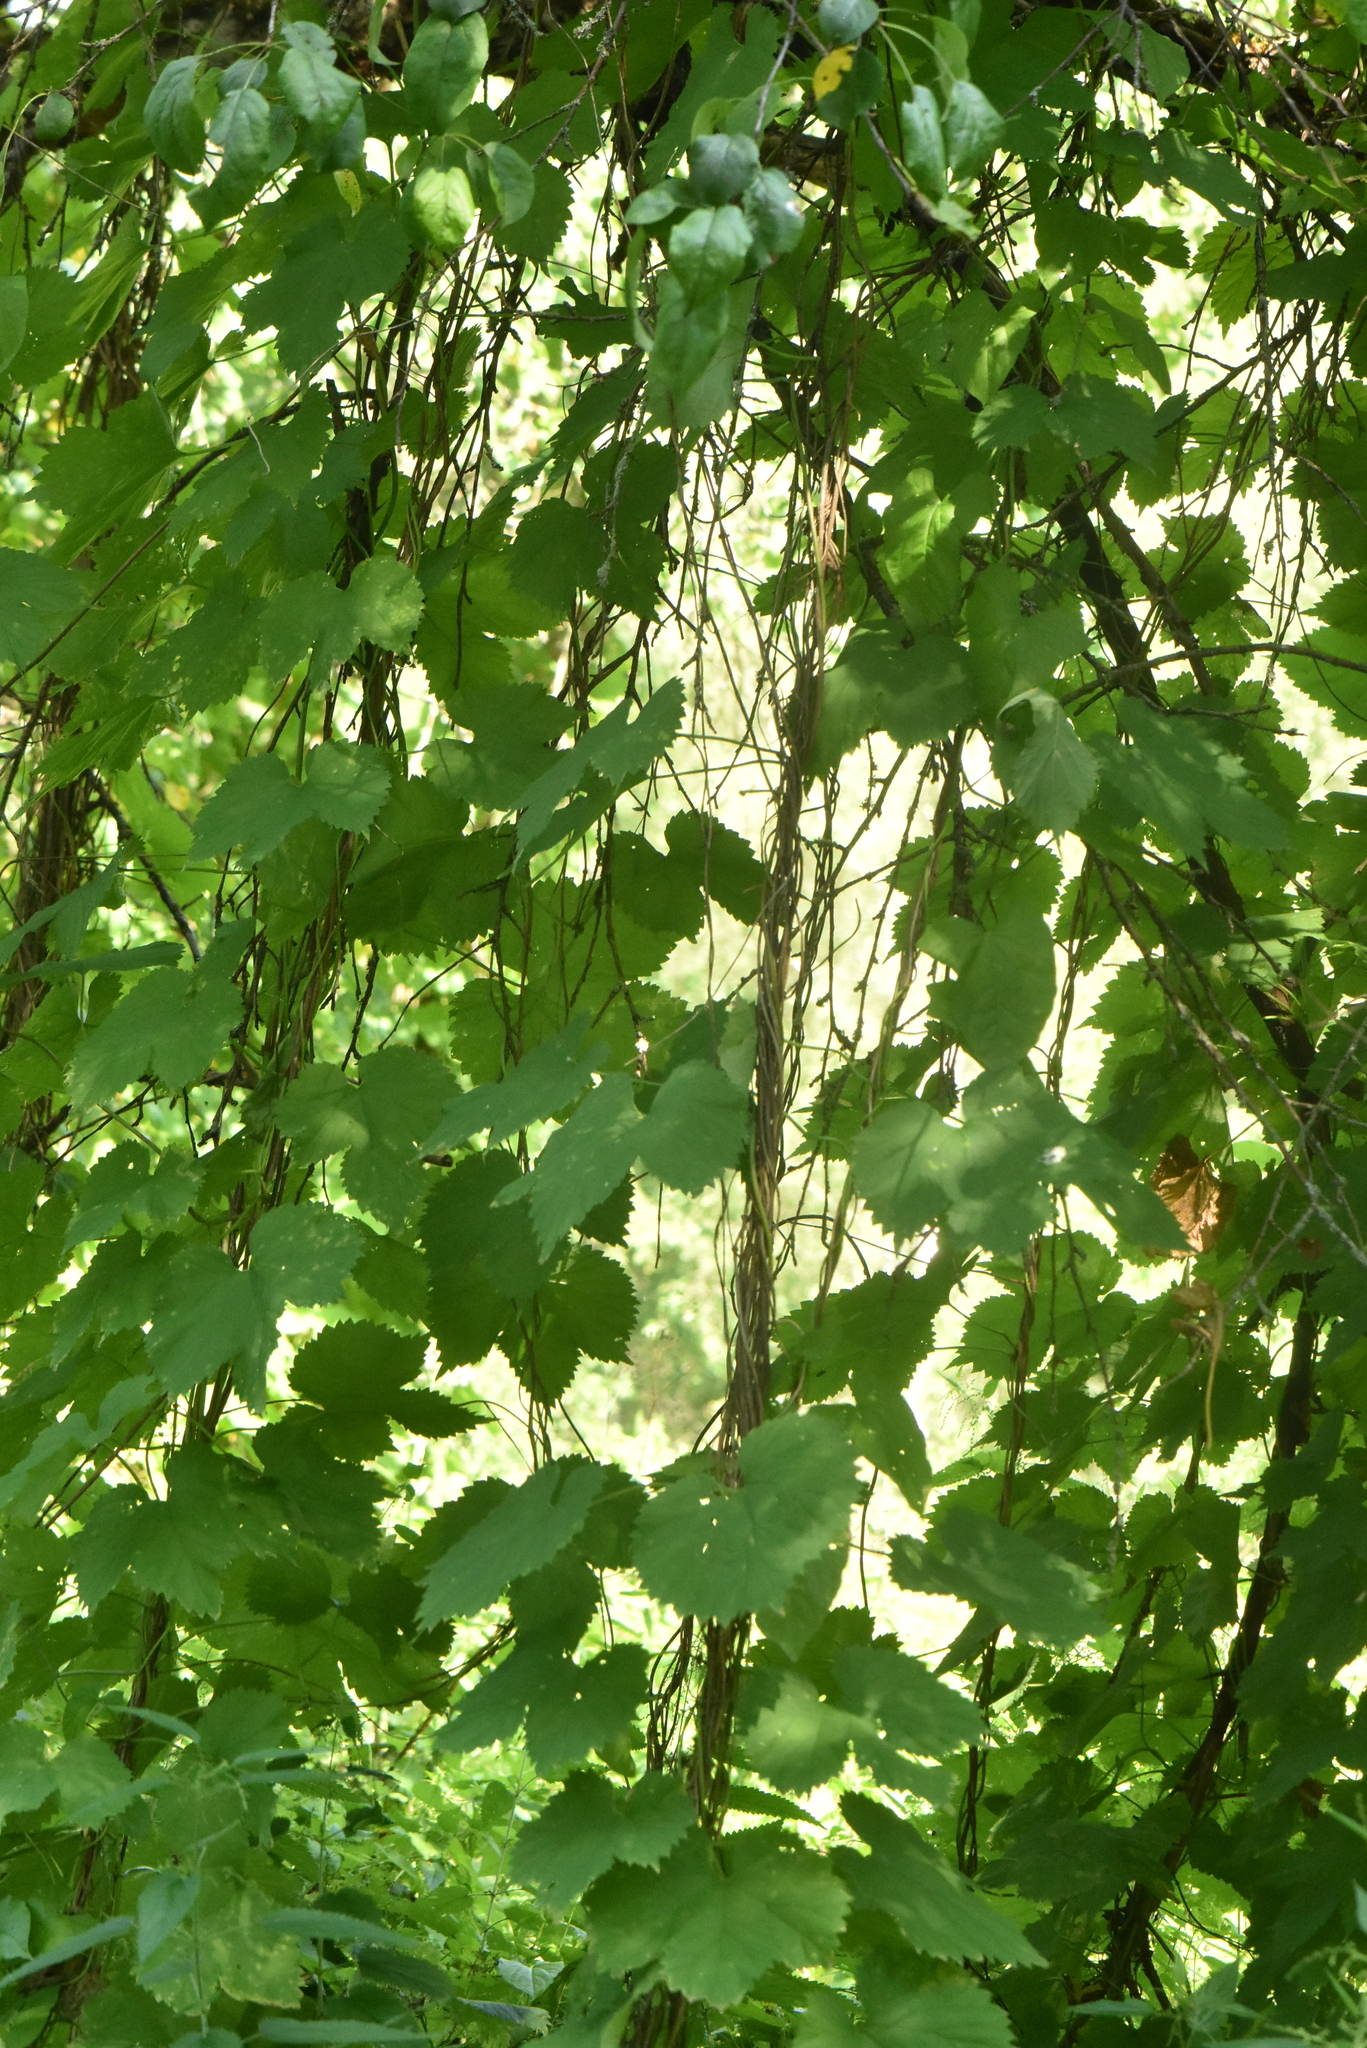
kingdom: Plantae
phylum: Tracheophyta
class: Magnoliopsida
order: Rosales
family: Cannabaceae
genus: Humulus
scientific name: Humulus lupulus
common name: Hop
